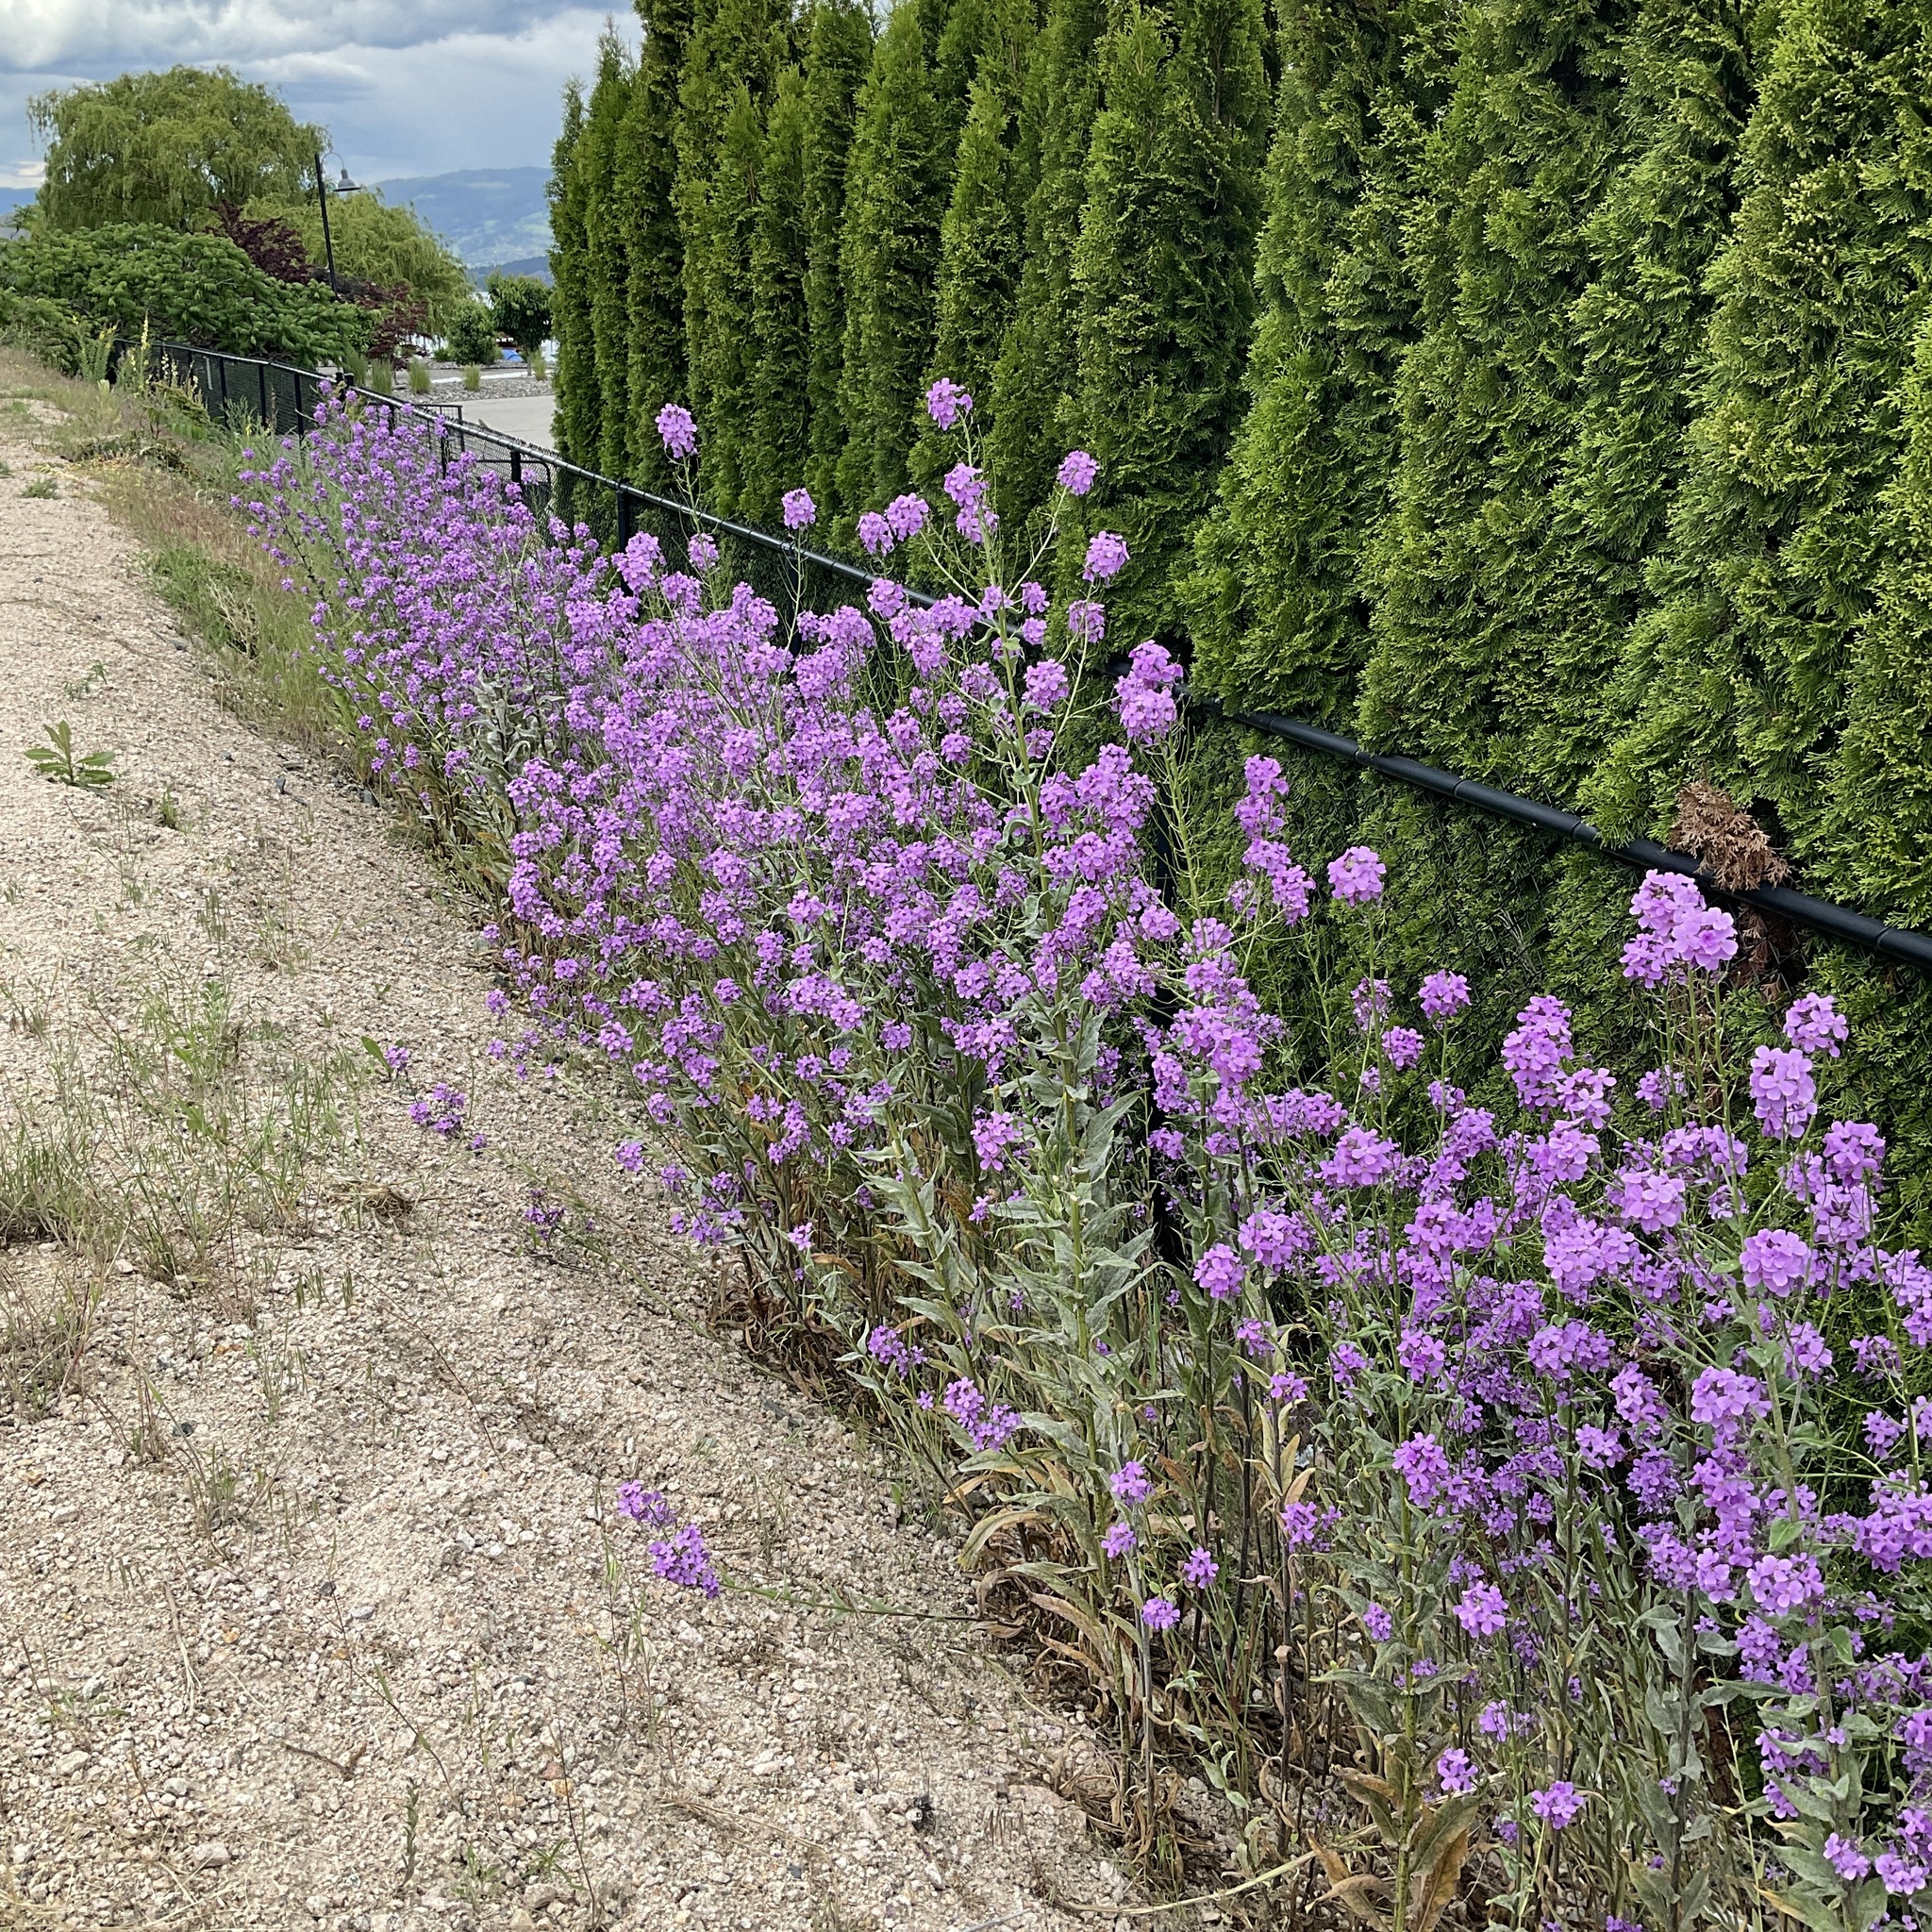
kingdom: Plantae
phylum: Tracheophyta
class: Magnoliopsida
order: Brassicales
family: Brassicaceae
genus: Hesperis
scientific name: Hesperis matronalis
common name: Dame's-violet
